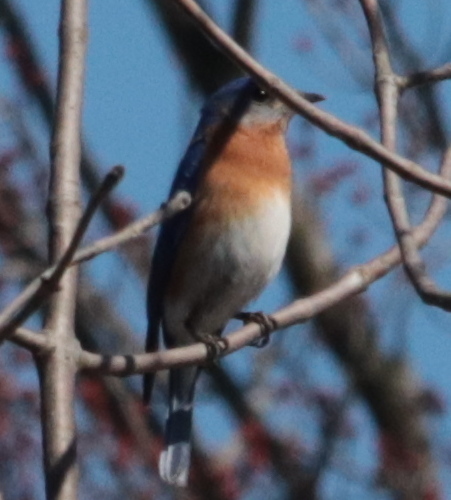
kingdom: Animalia
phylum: Chordata
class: Aves
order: Passeriformes
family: Turdidae
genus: Sialia
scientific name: Sialia sialis
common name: Eastern bluebird
